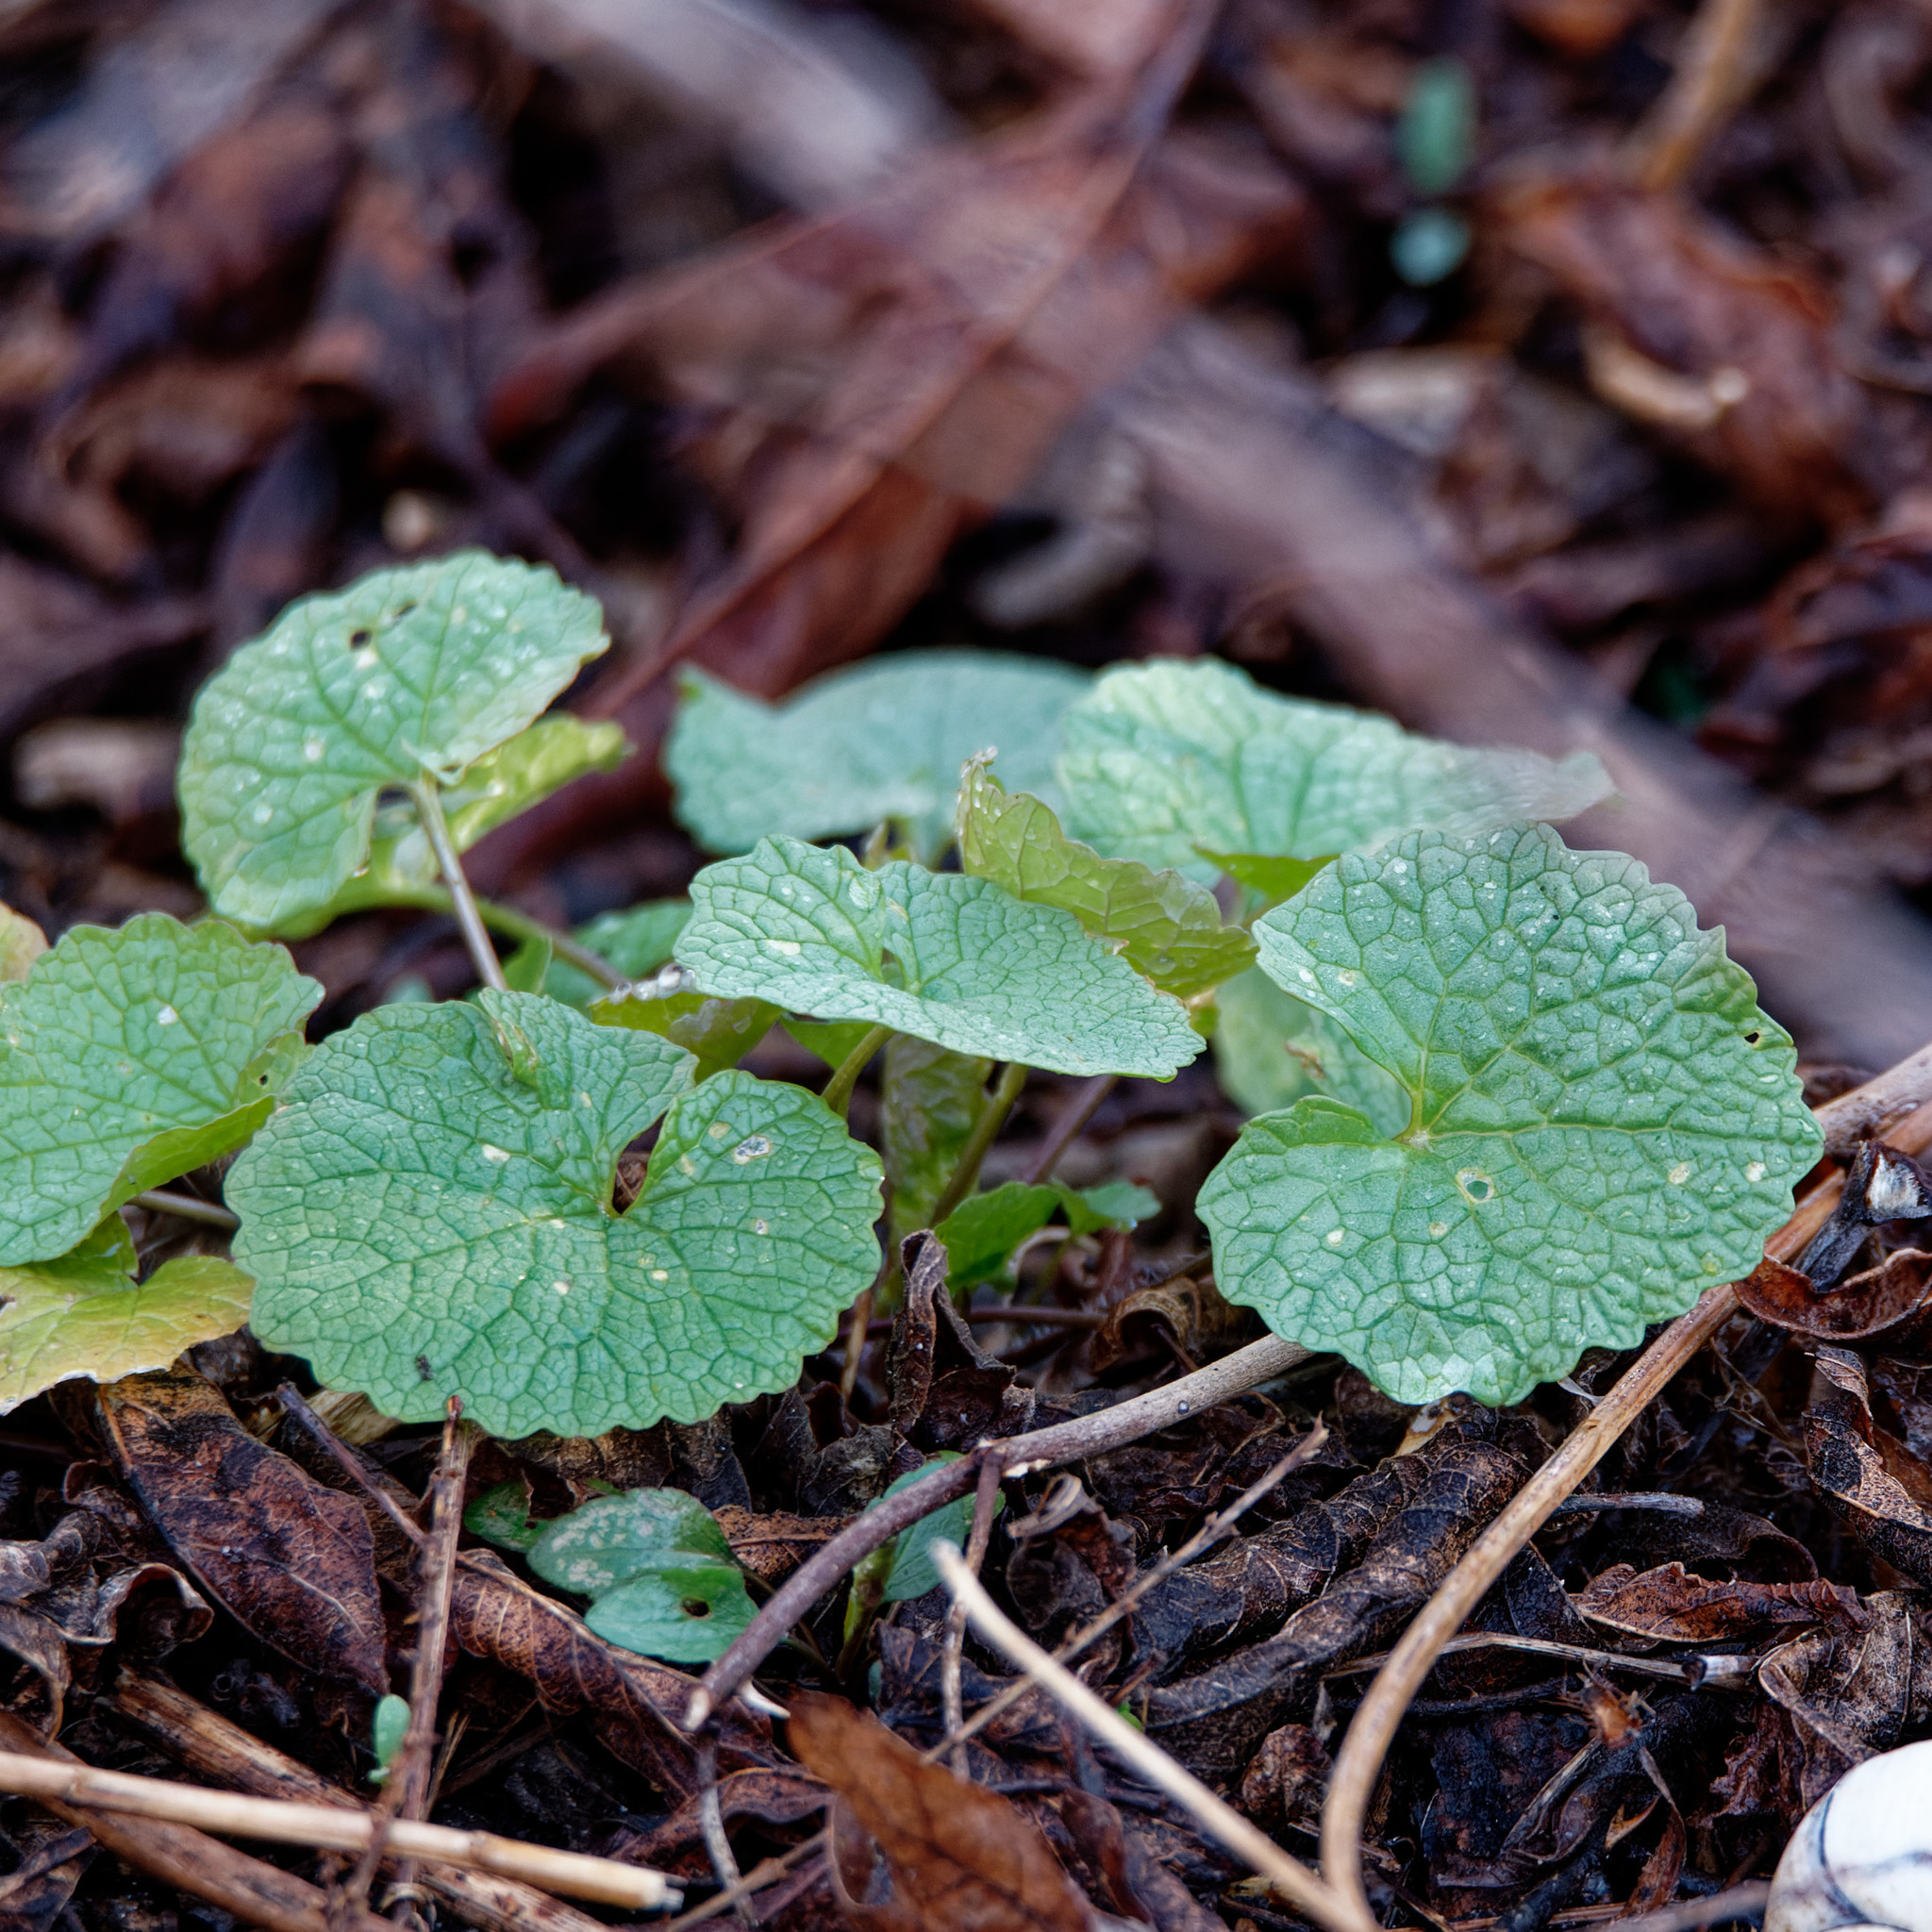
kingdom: Plantae
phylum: Tracheophyta
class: Magnoliopsida
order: Brassicales
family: Brassicaceae
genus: Alliaria
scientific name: Alliaria petiolata
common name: Garlic mustard
